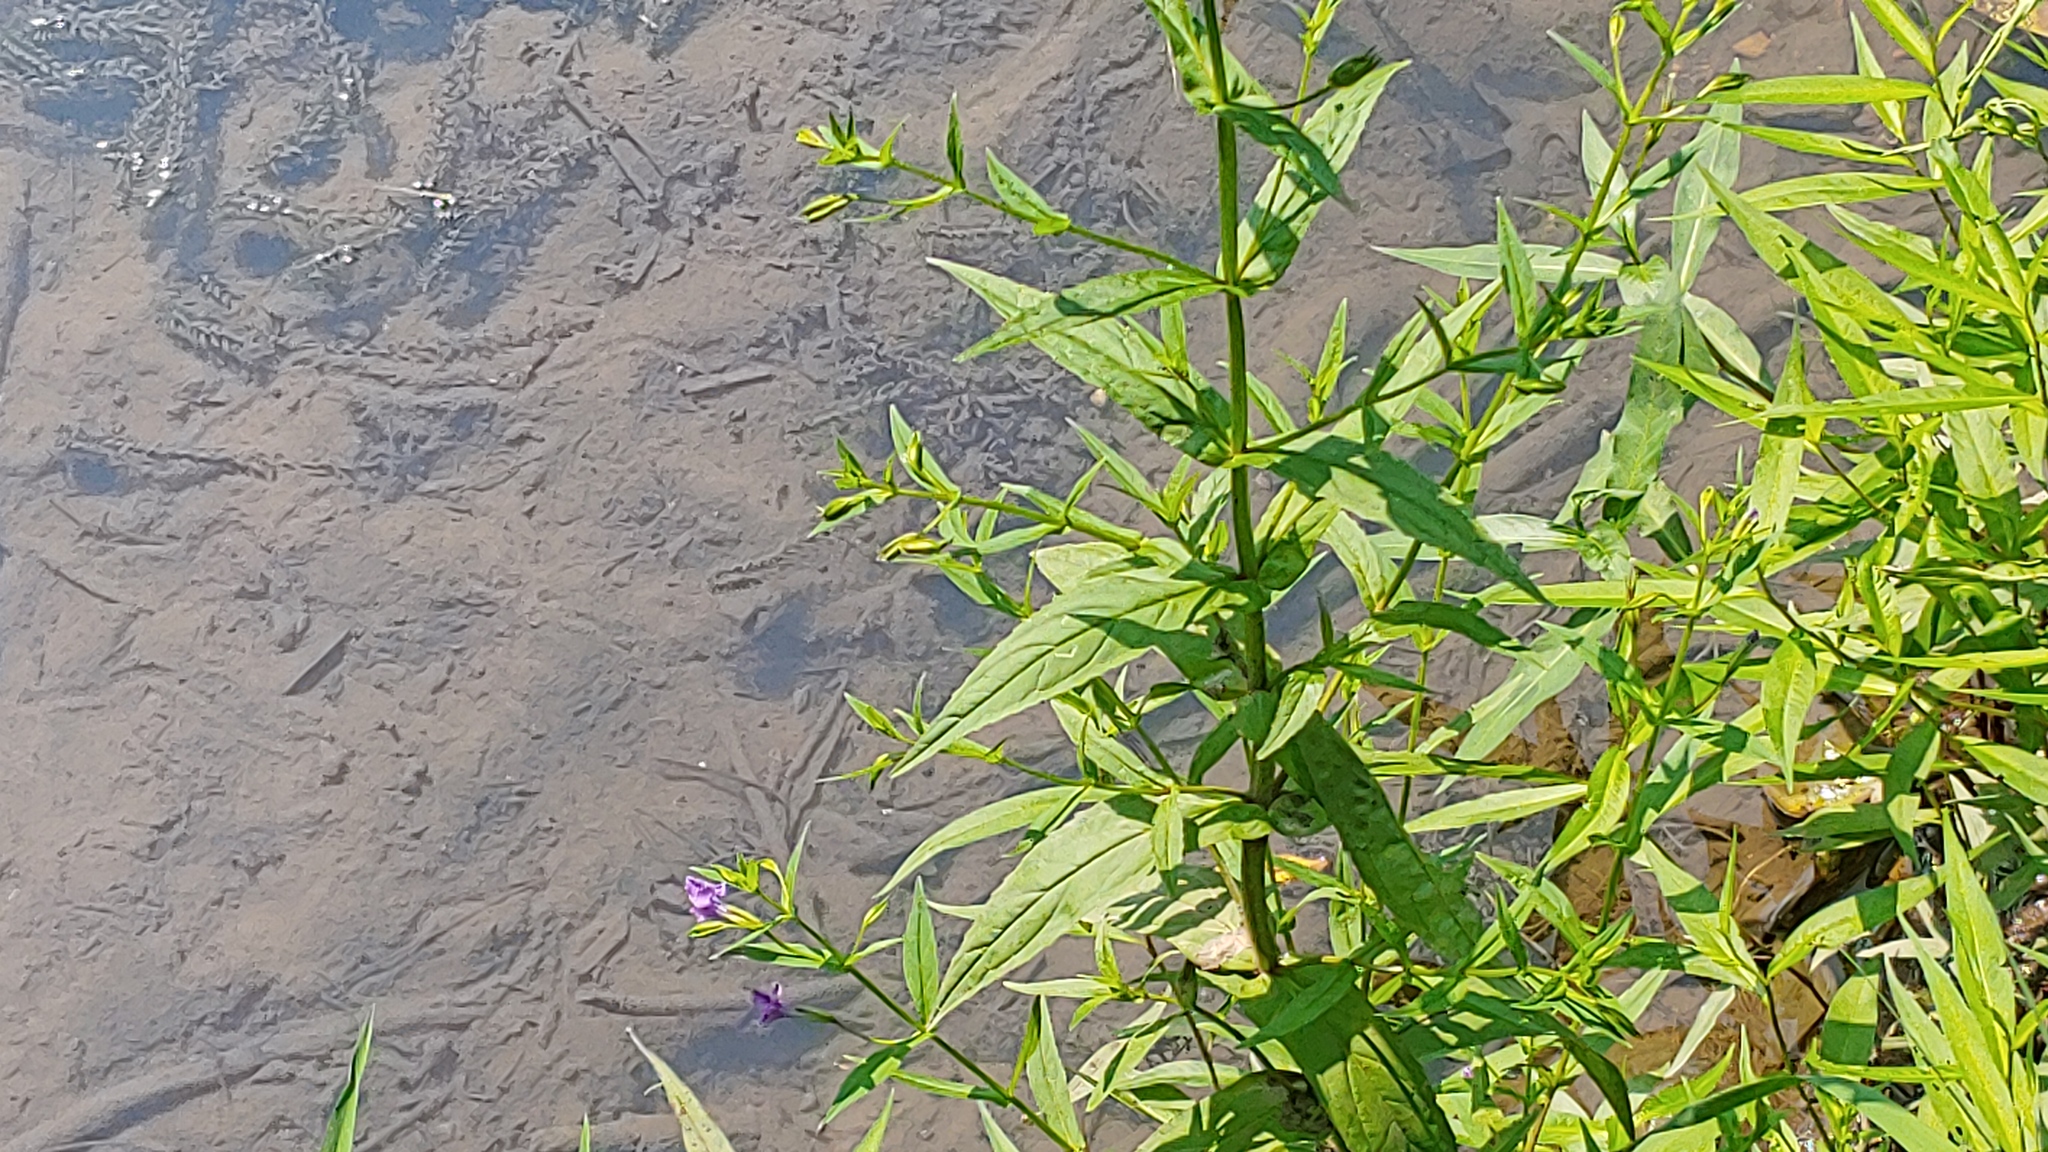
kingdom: Plantae
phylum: Tracheophyta
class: Magnoliopsida
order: Lamiales
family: Phrymaceae
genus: Mimulus
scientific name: Mimulus ringens
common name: Allegheny monkeyflower
